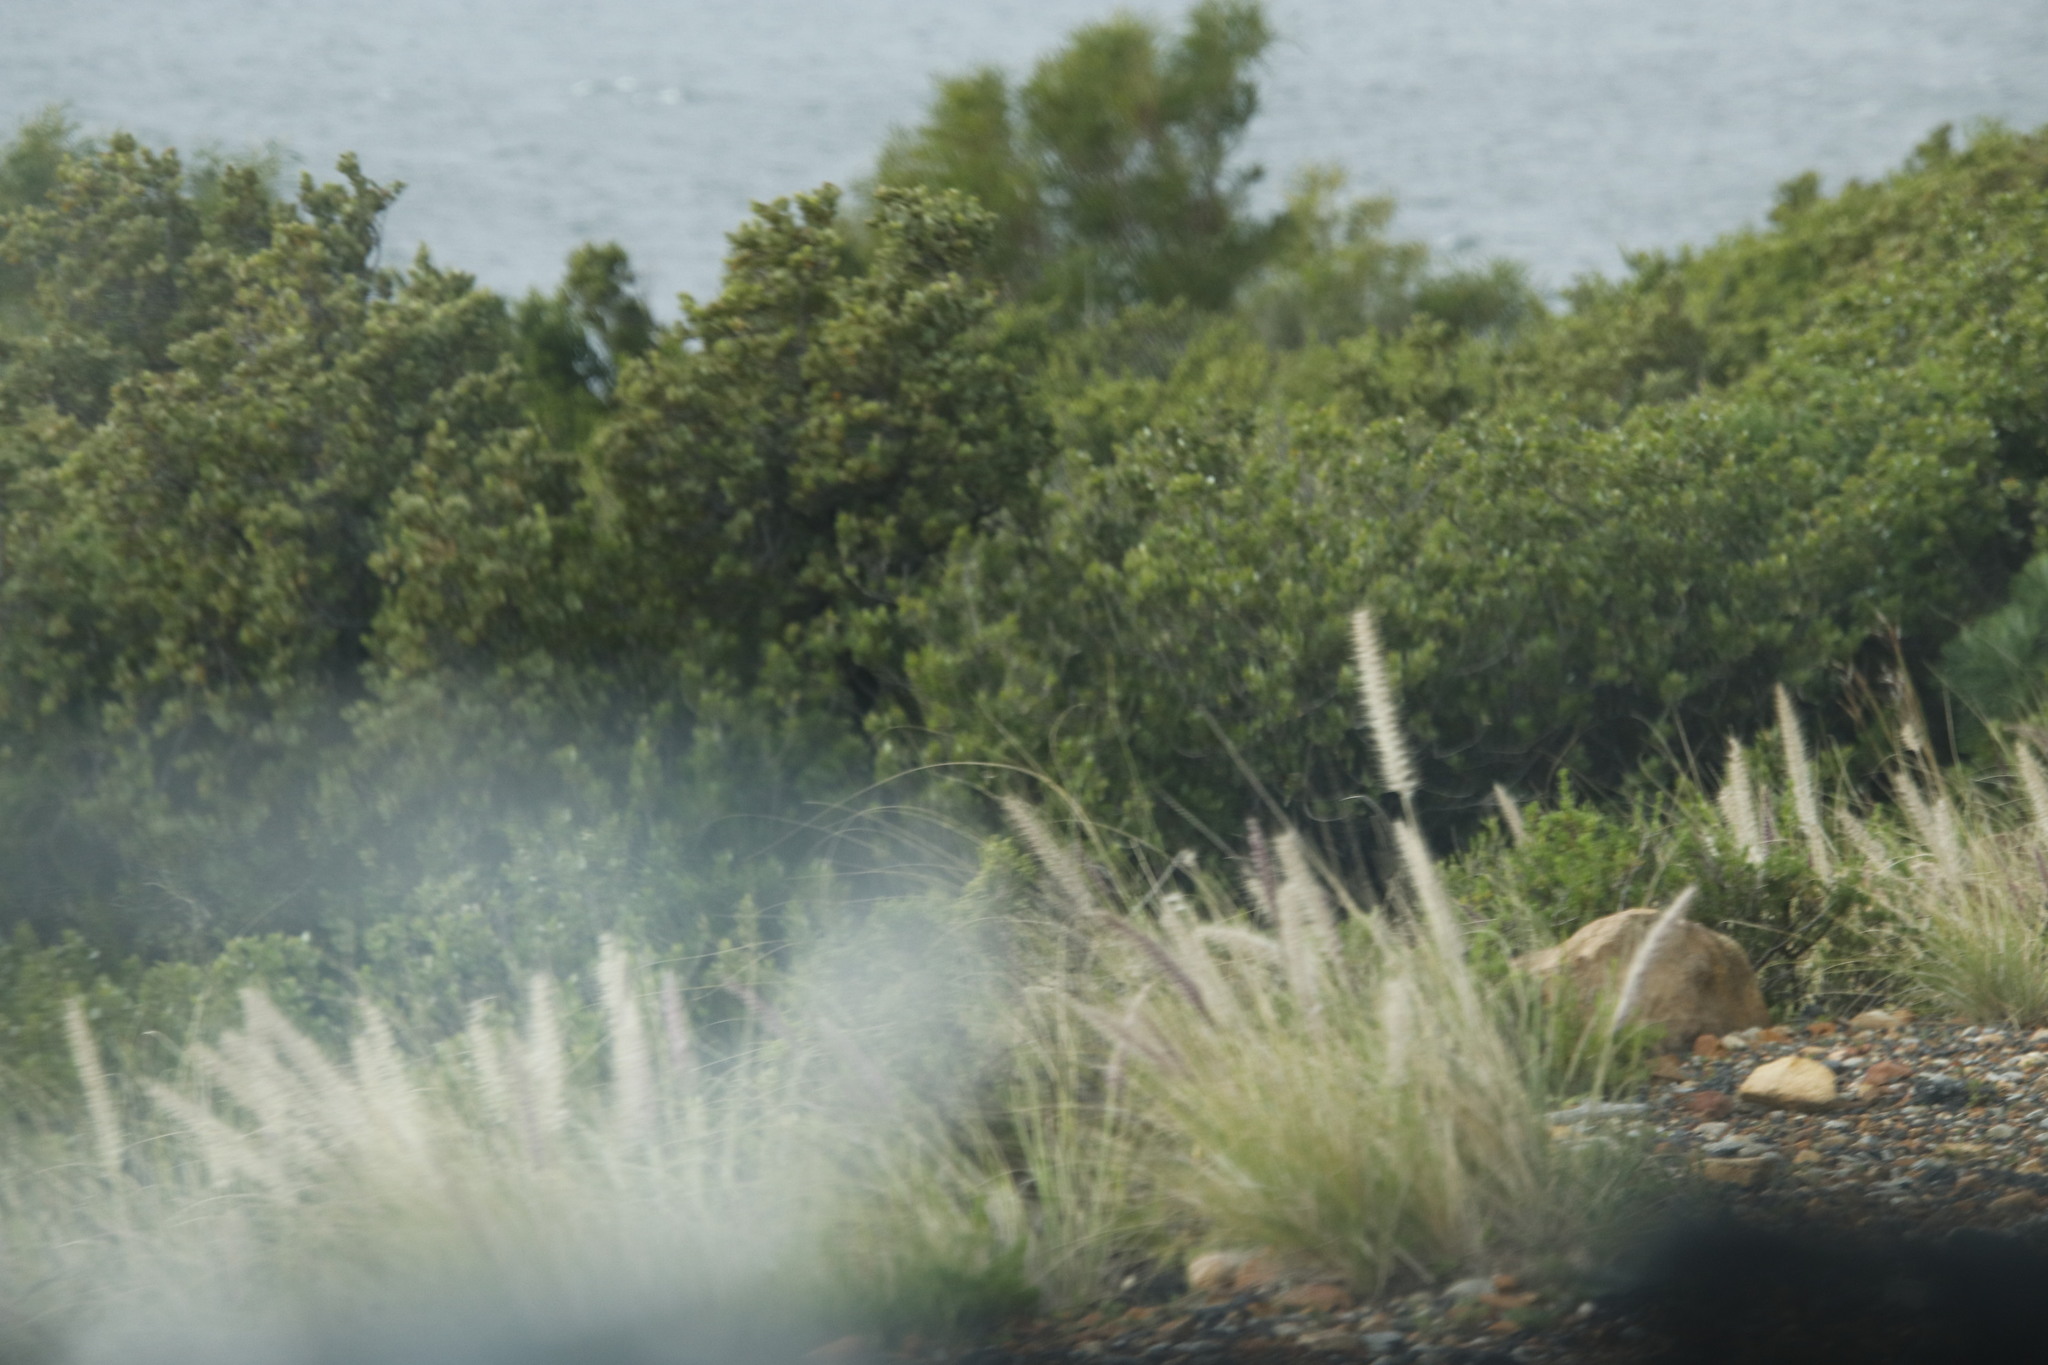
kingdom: Plantae
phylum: Tracheophyta
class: Liliopsida
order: Poales
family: Poaceae
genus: Cenchrus
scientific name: Cenchrus setaceus
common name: Crimson fountaingrass
